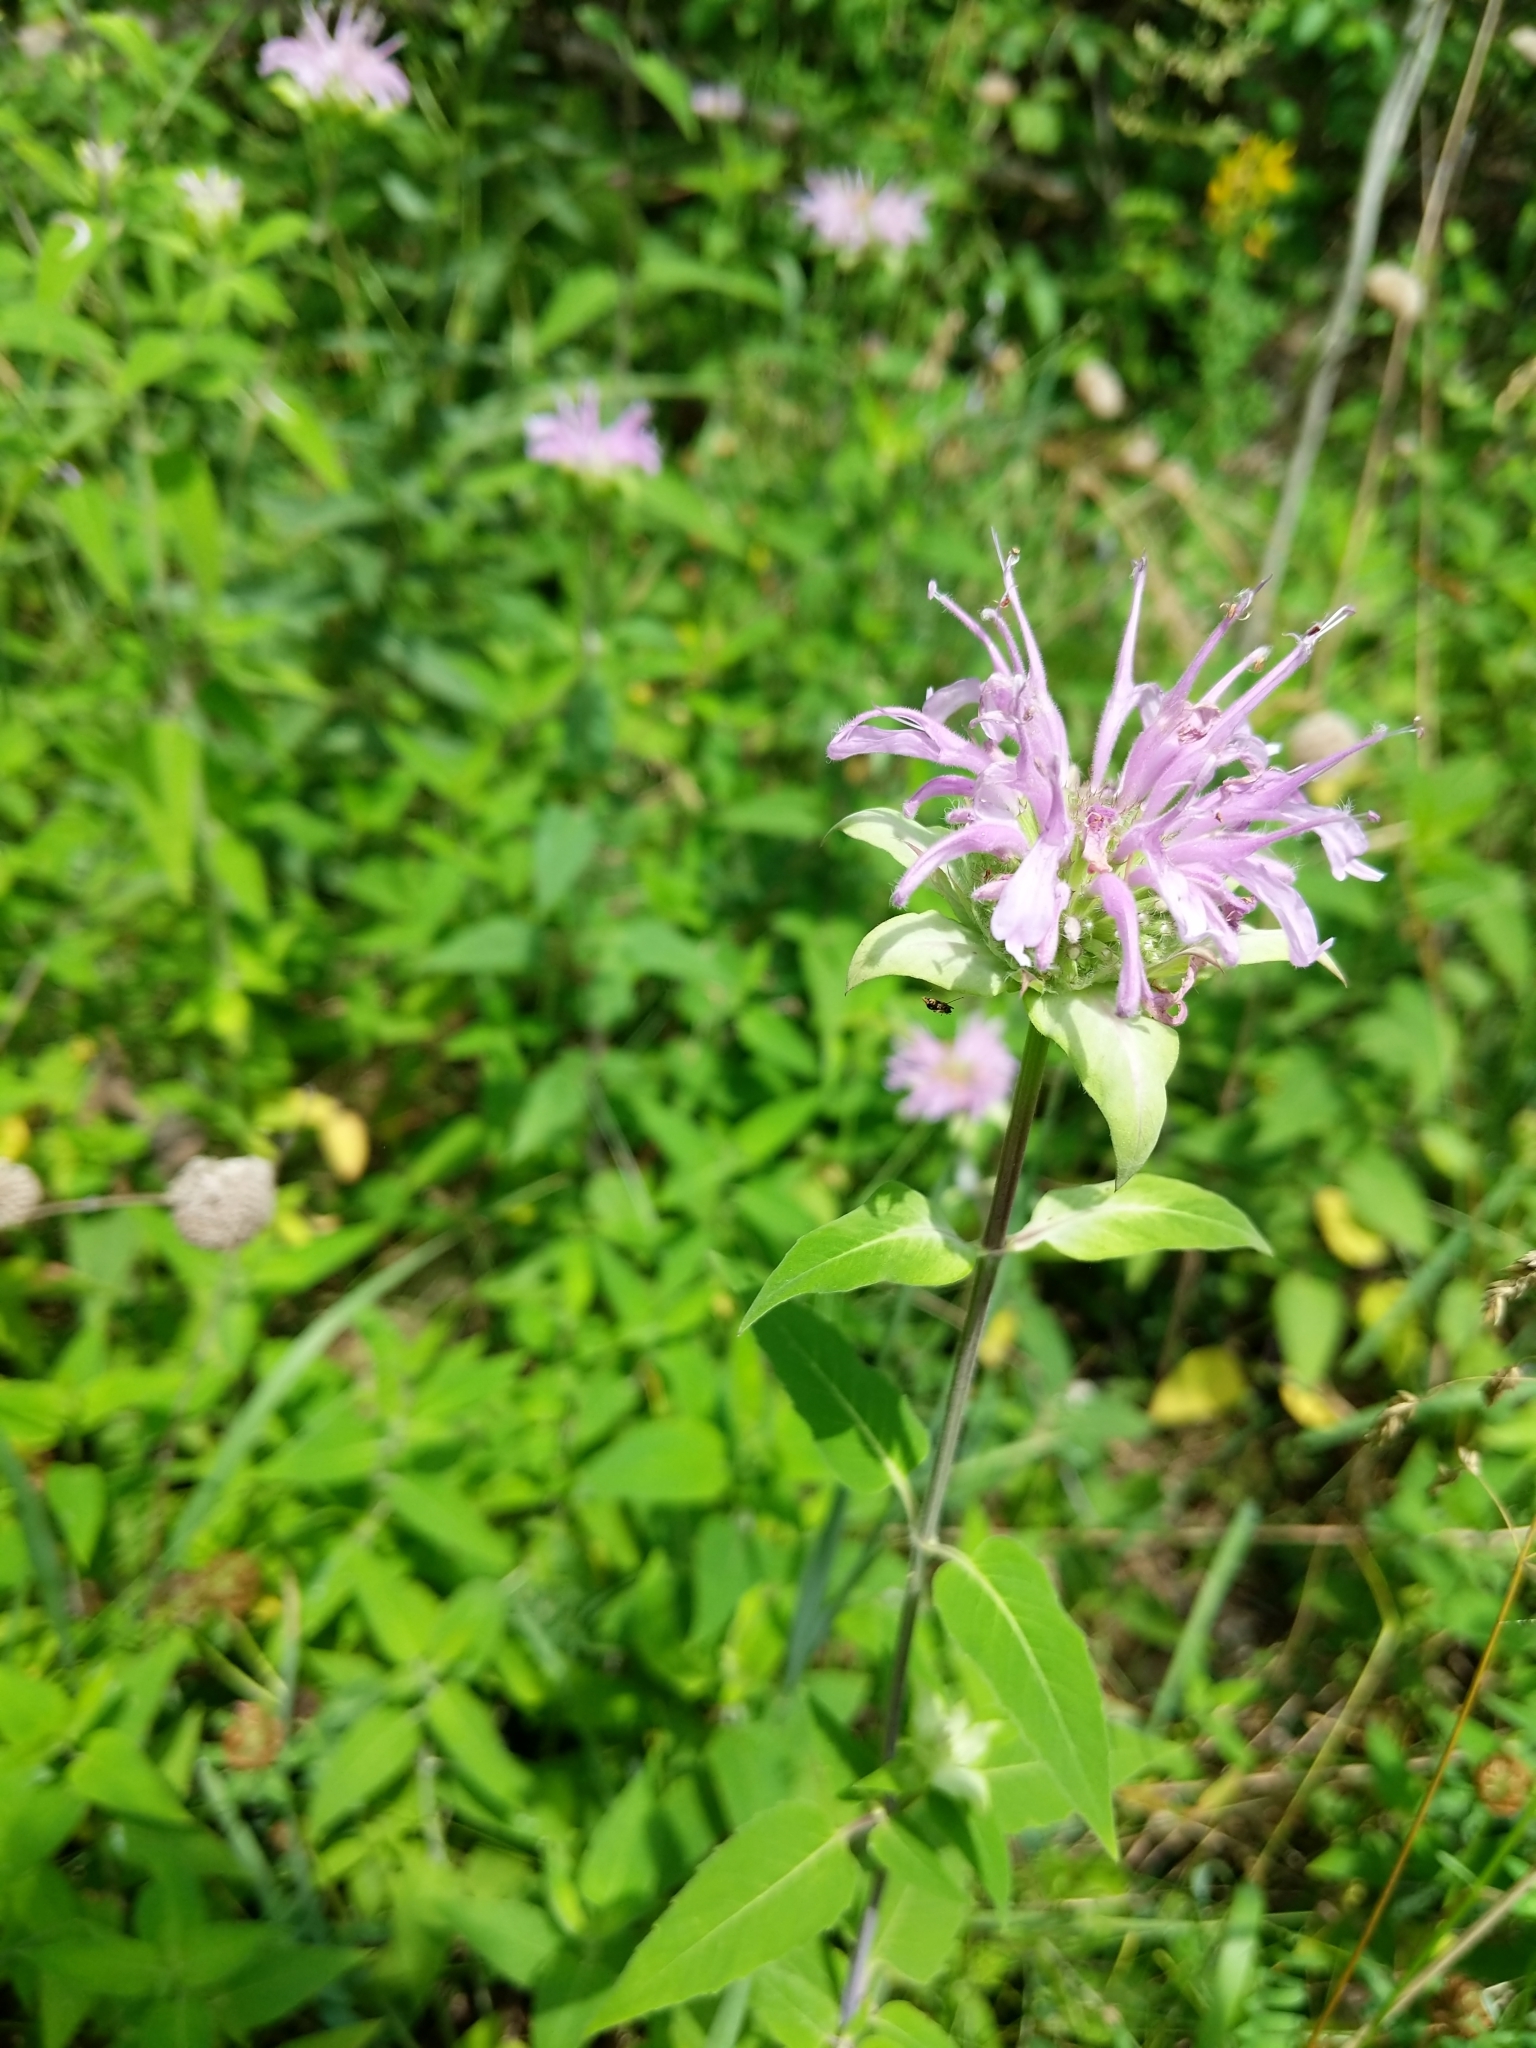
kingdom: Plantae
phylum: Tracheophyta
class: Magnoliopsida
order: Lamiales
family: Lamiaceae
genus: Monarda
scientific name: Monarda fistulosa
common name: Purple beebalm
